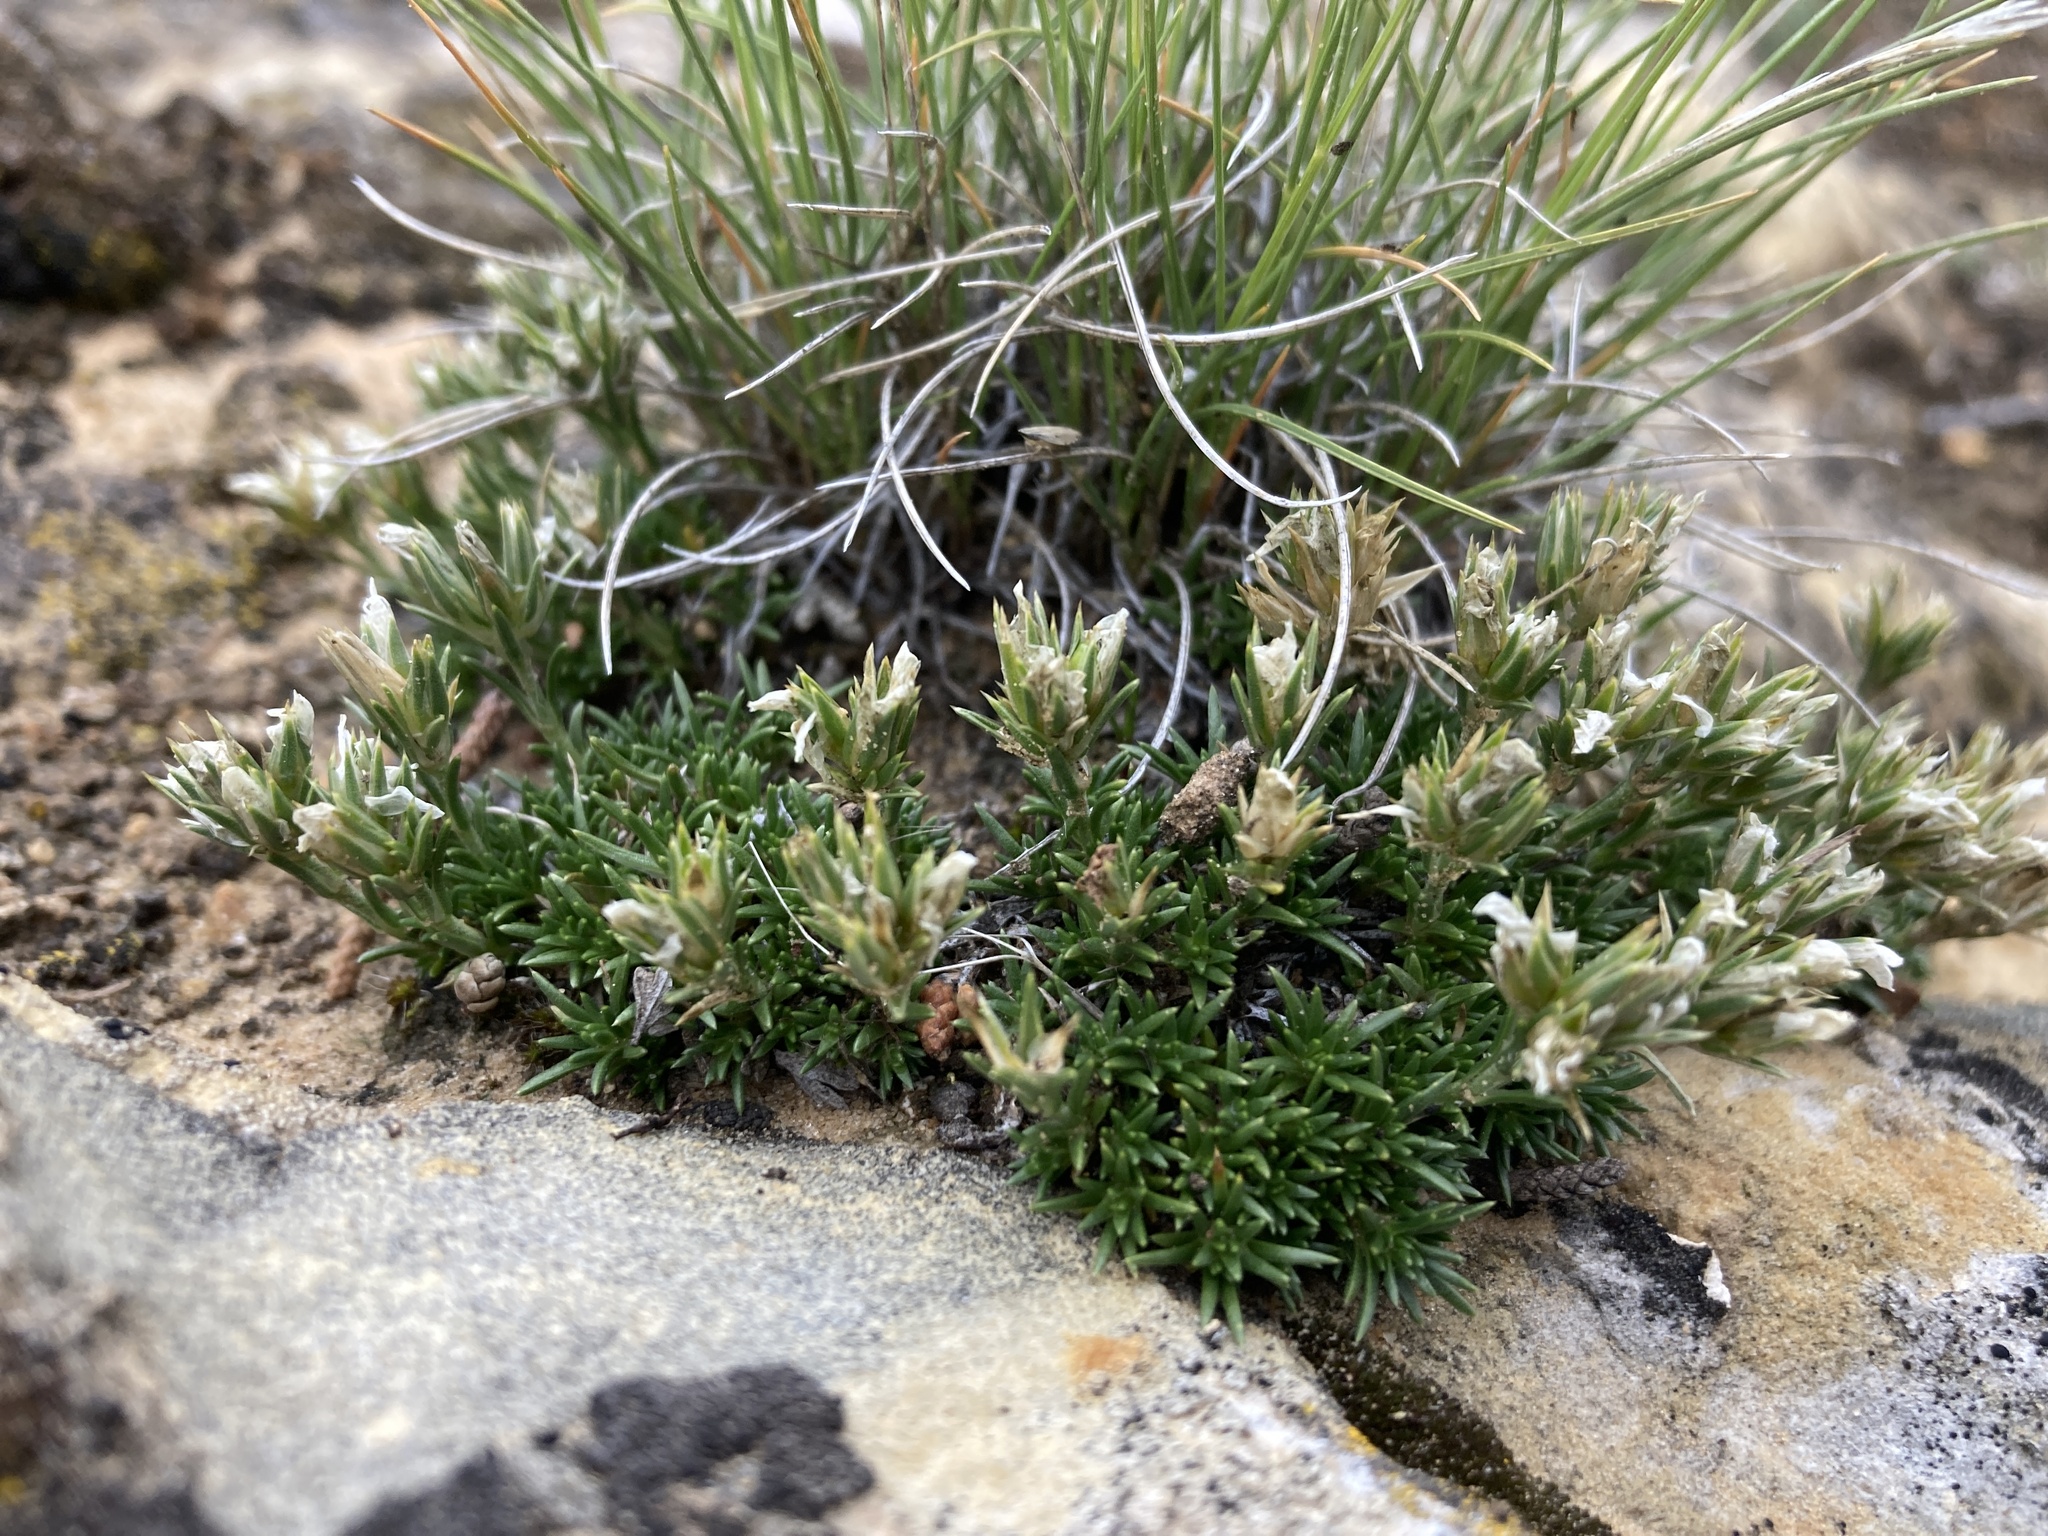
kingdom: Plantae
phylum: Tracheophyta
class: Magnoliopsida
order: Caryophyllales
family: Caryophyllaceae
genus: Eremogone
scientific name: Eremogone hookeri
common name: Hooker's sandwort
